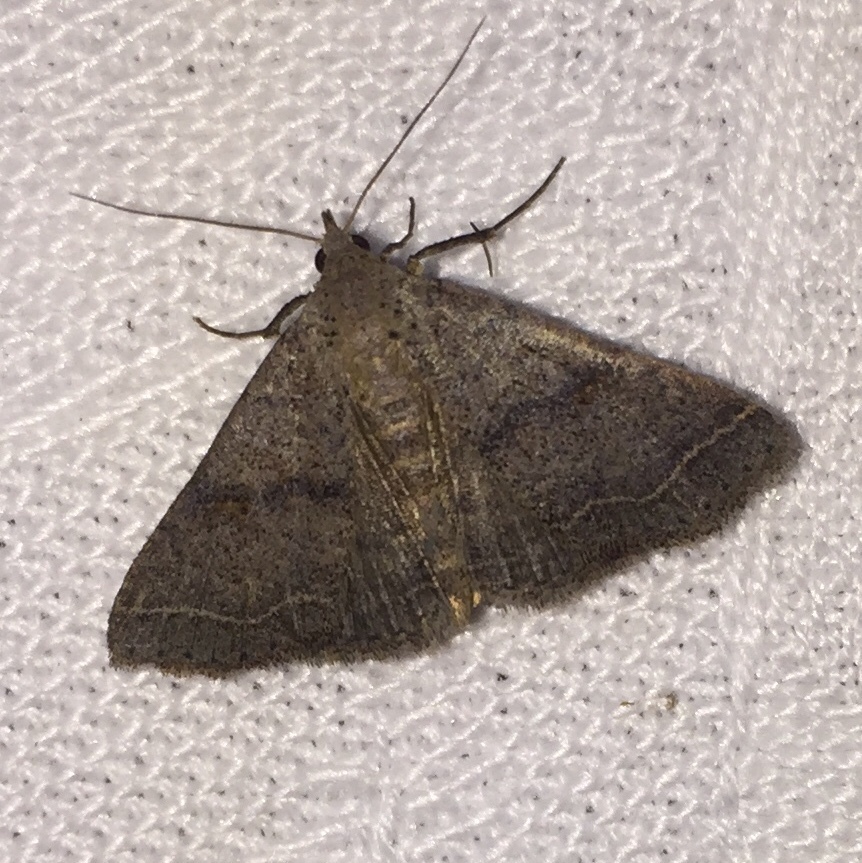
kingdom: Animalia
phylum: Arthropoda
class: Insecta
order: Lepidoptera
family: Erebidae
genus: Bleptina
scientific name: Bleptina caradrinalis
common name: Bent-winged owlet
